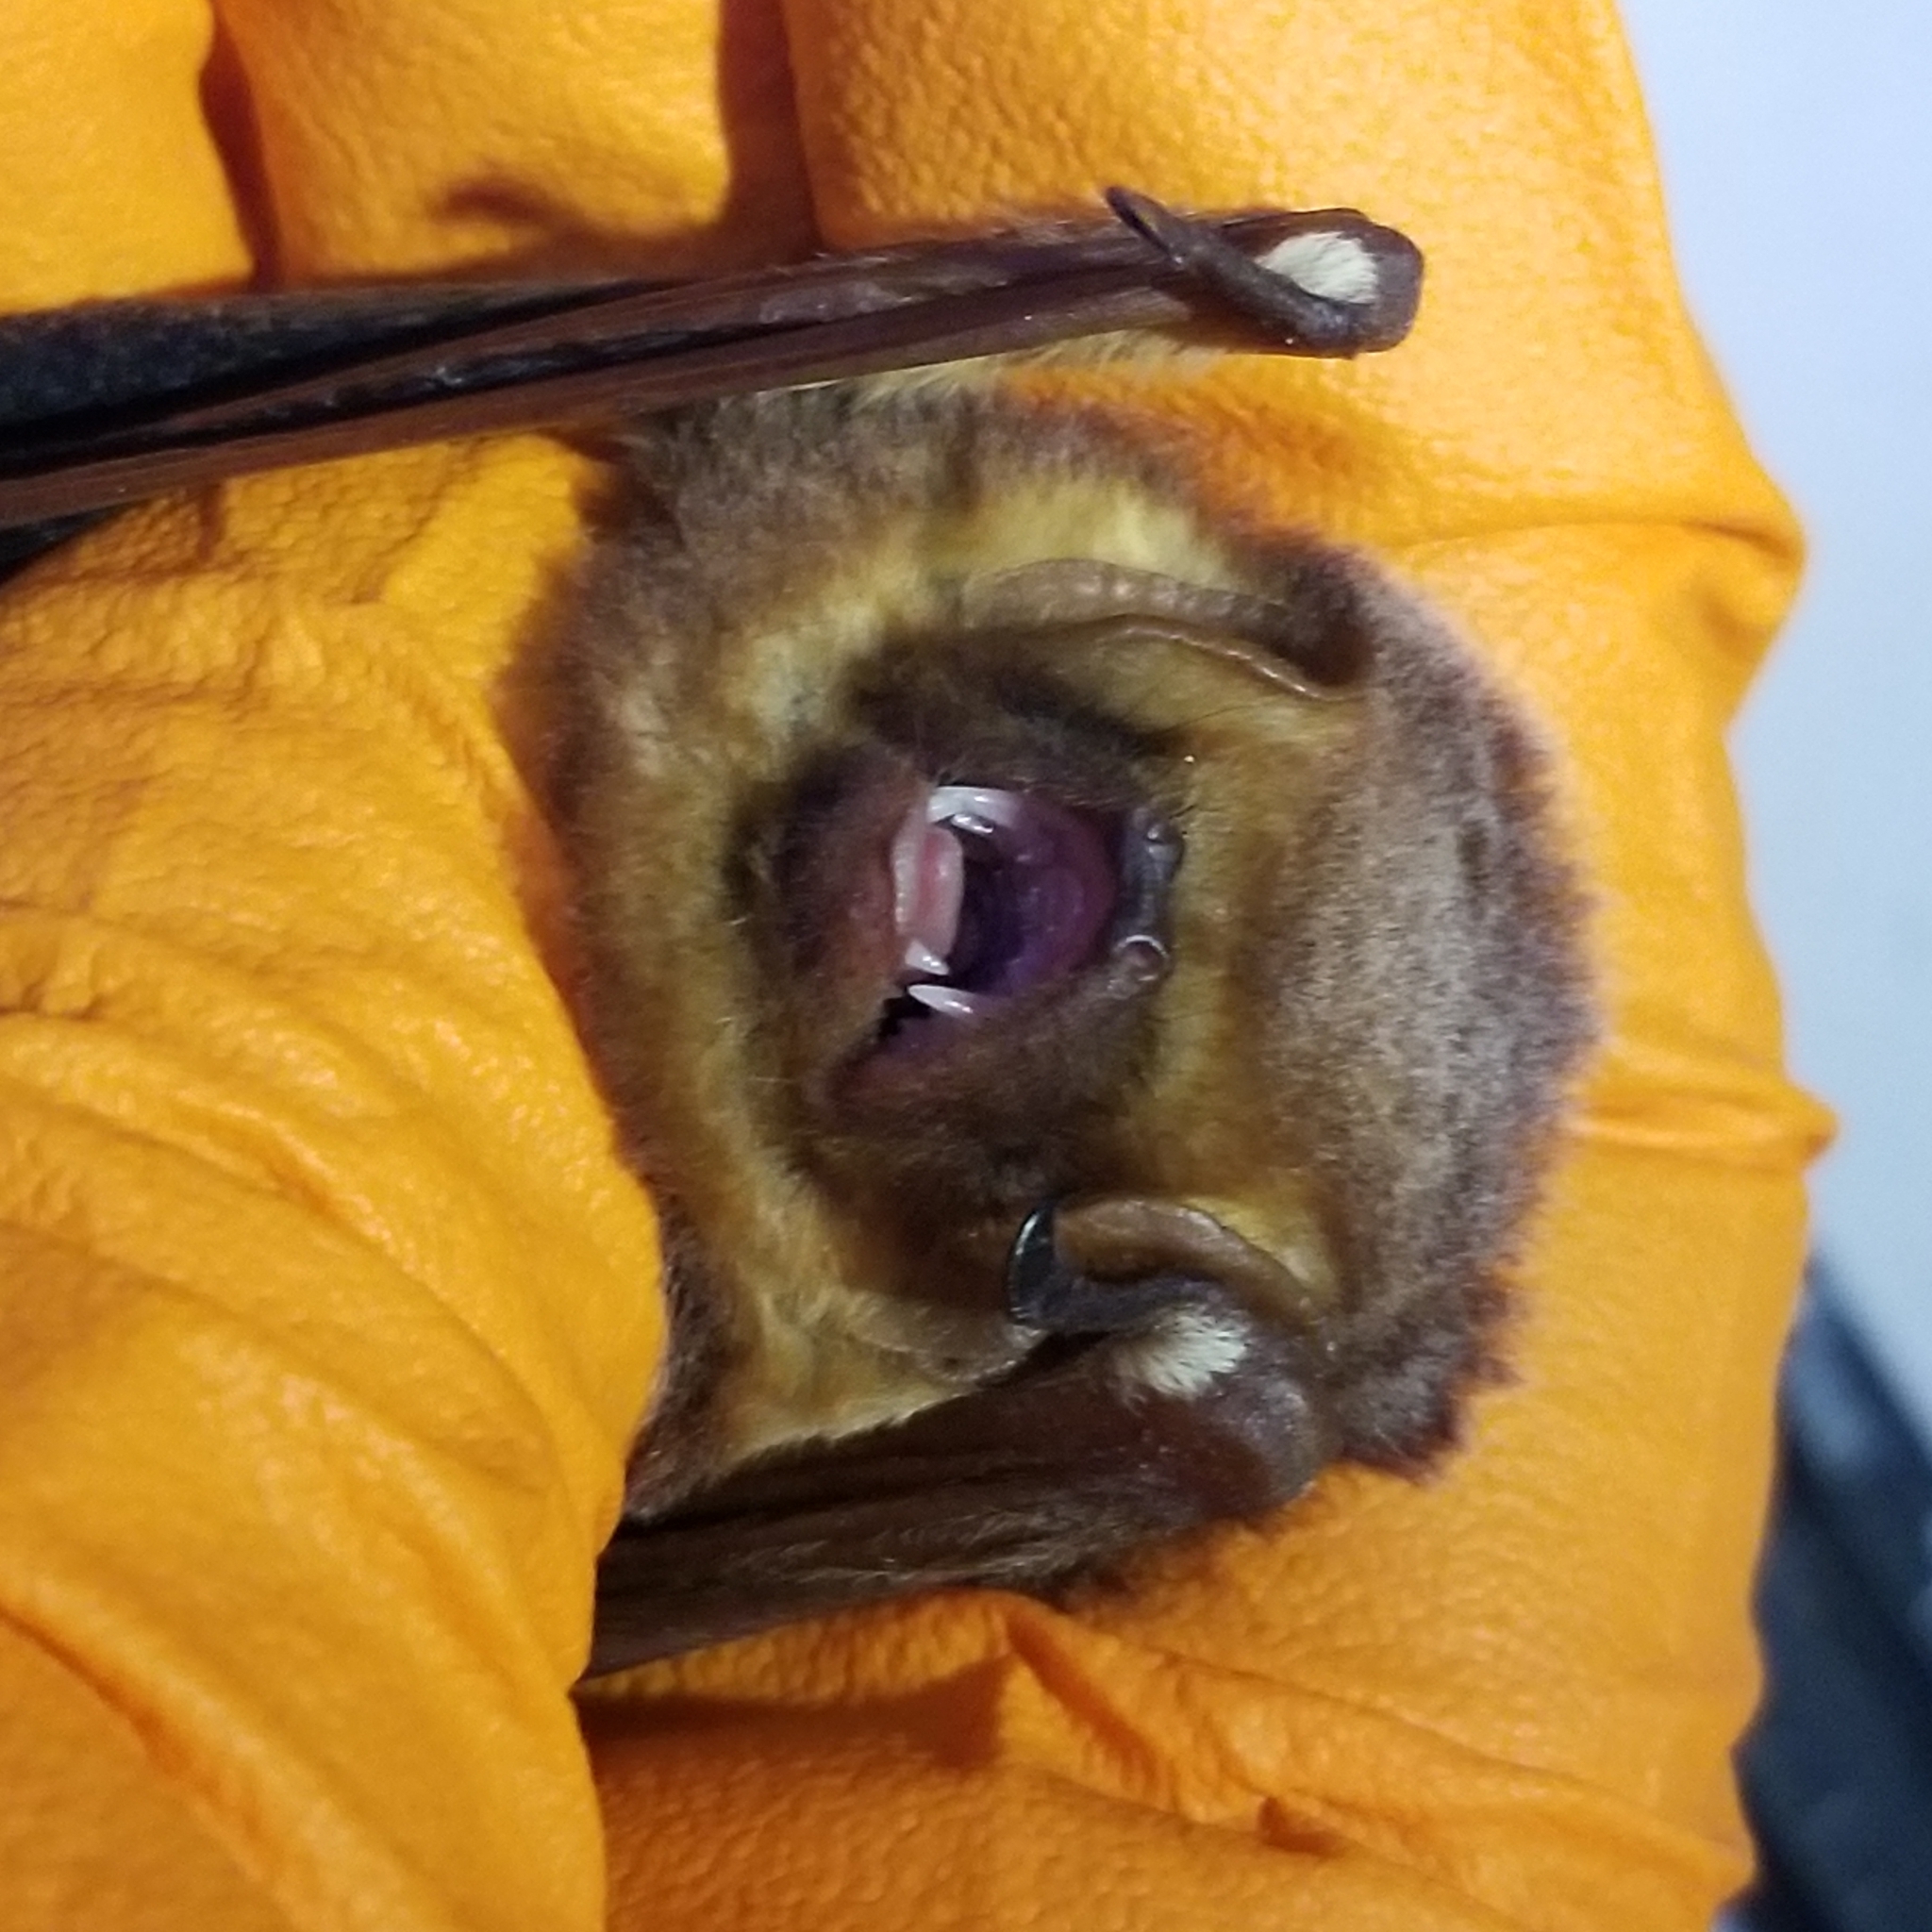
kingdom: Animalia
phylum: Chordata
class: Mammalia
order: Chiroptera
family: Vespertilionidae
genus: Lasiurus
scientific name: Lasiurus seminolus
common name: Seminole bat
